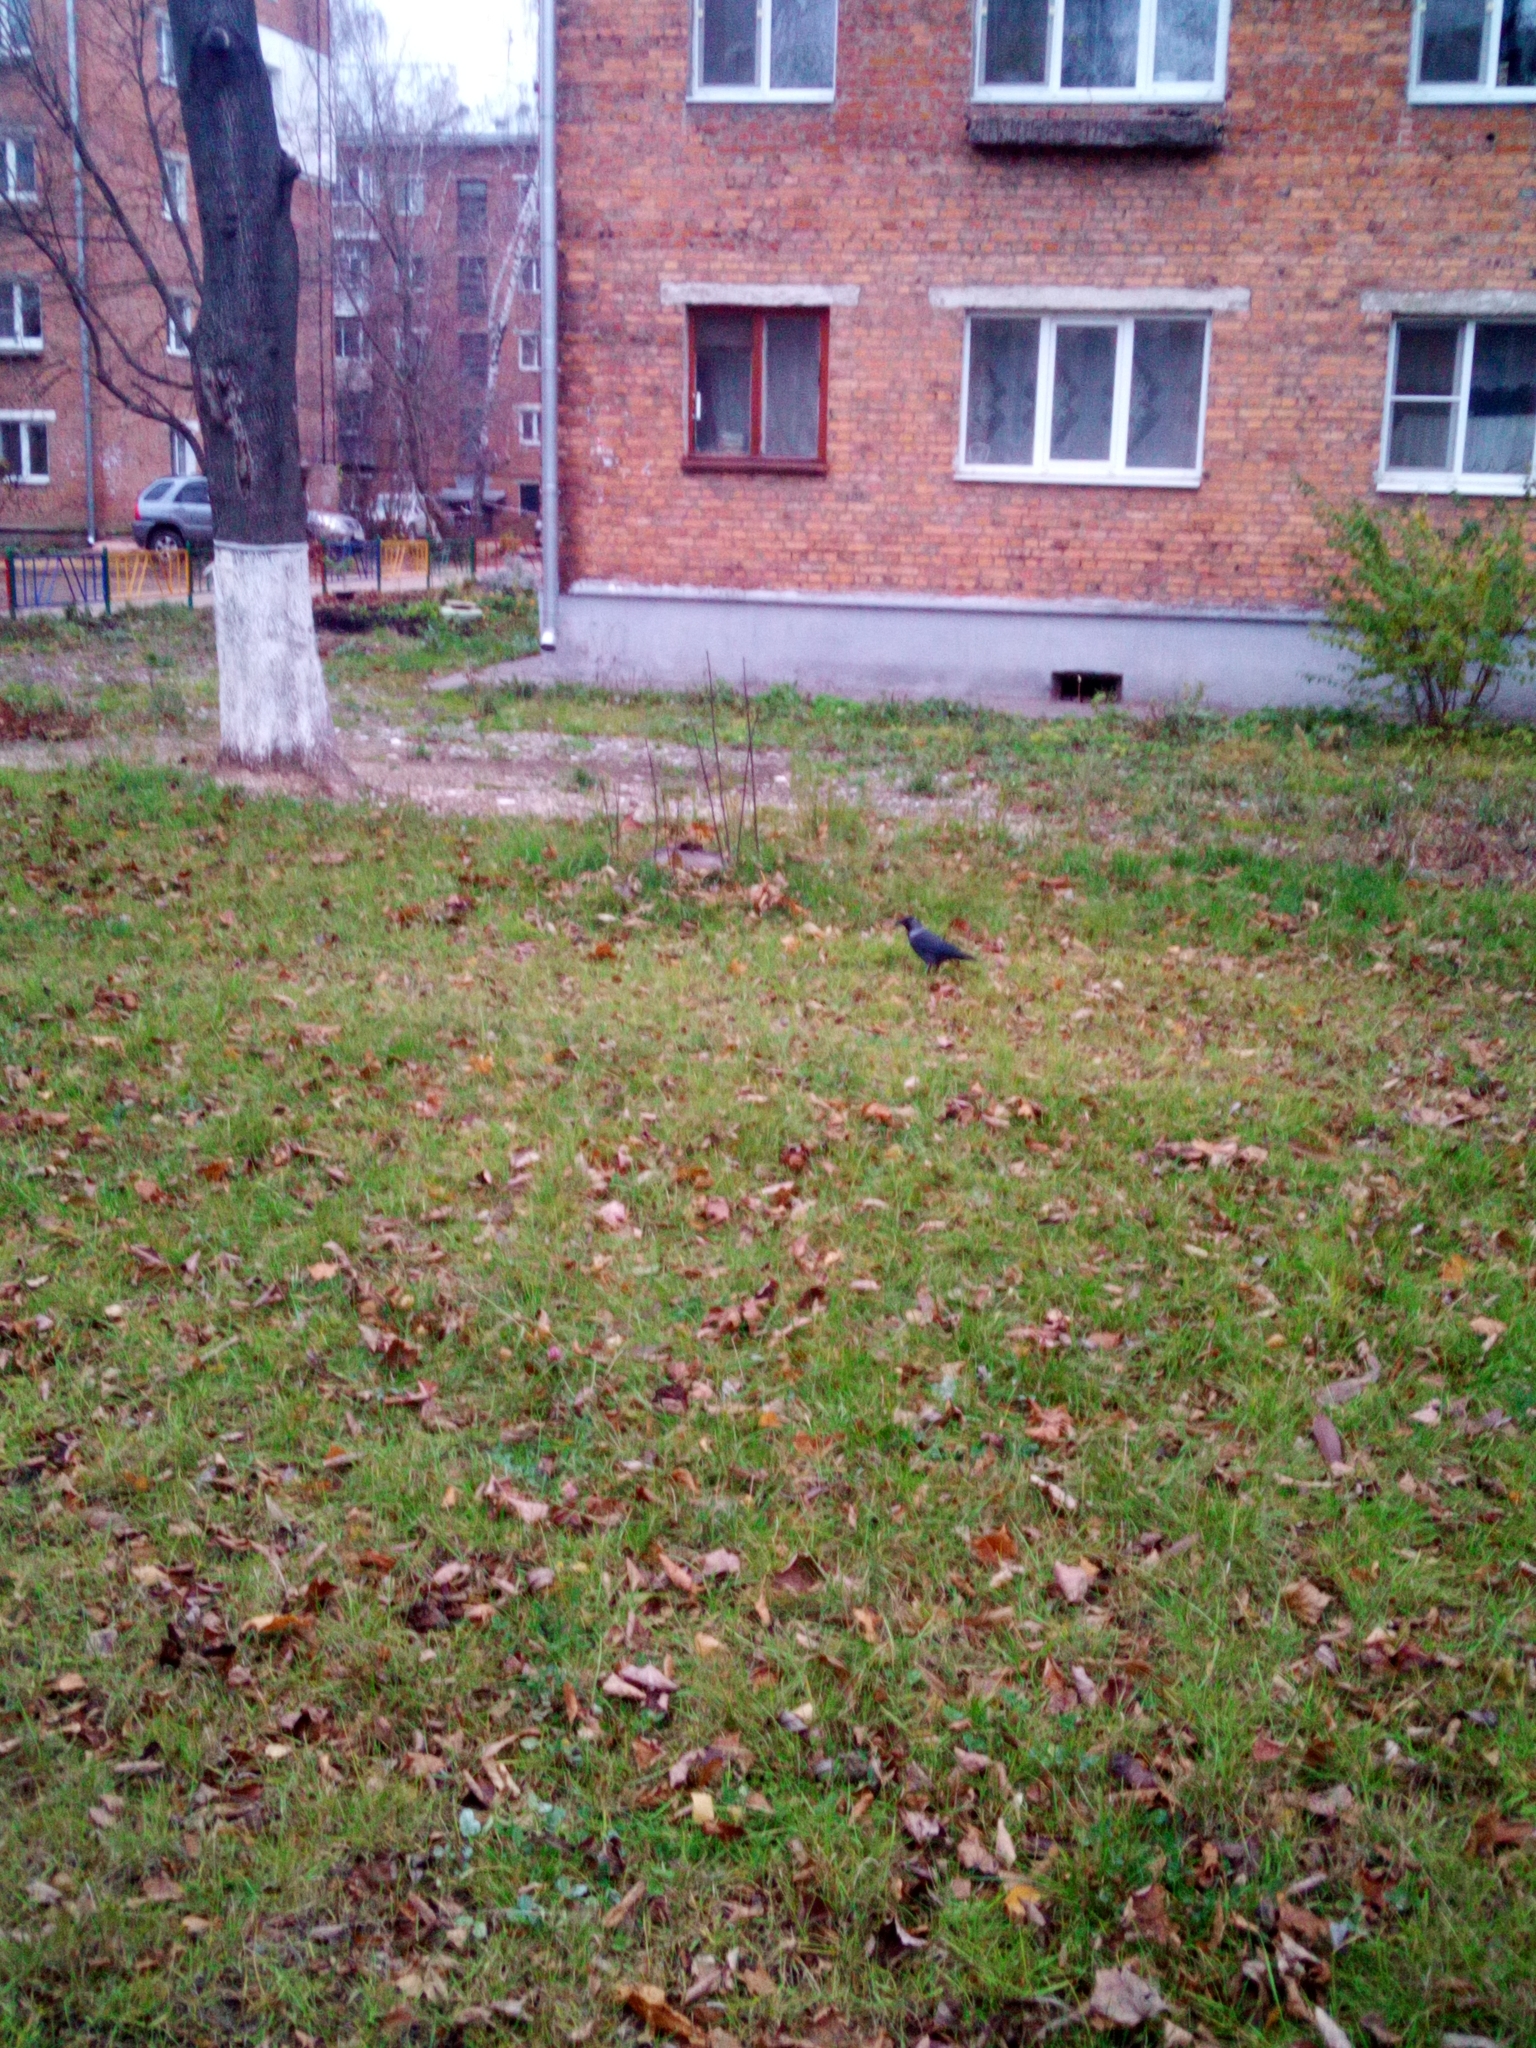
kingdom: Animalia
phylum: Chordata
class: Aves
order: Passeriformes
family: Corvidae
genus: Coloeus
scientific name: Coloeus monedula
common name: Western jackdaw
